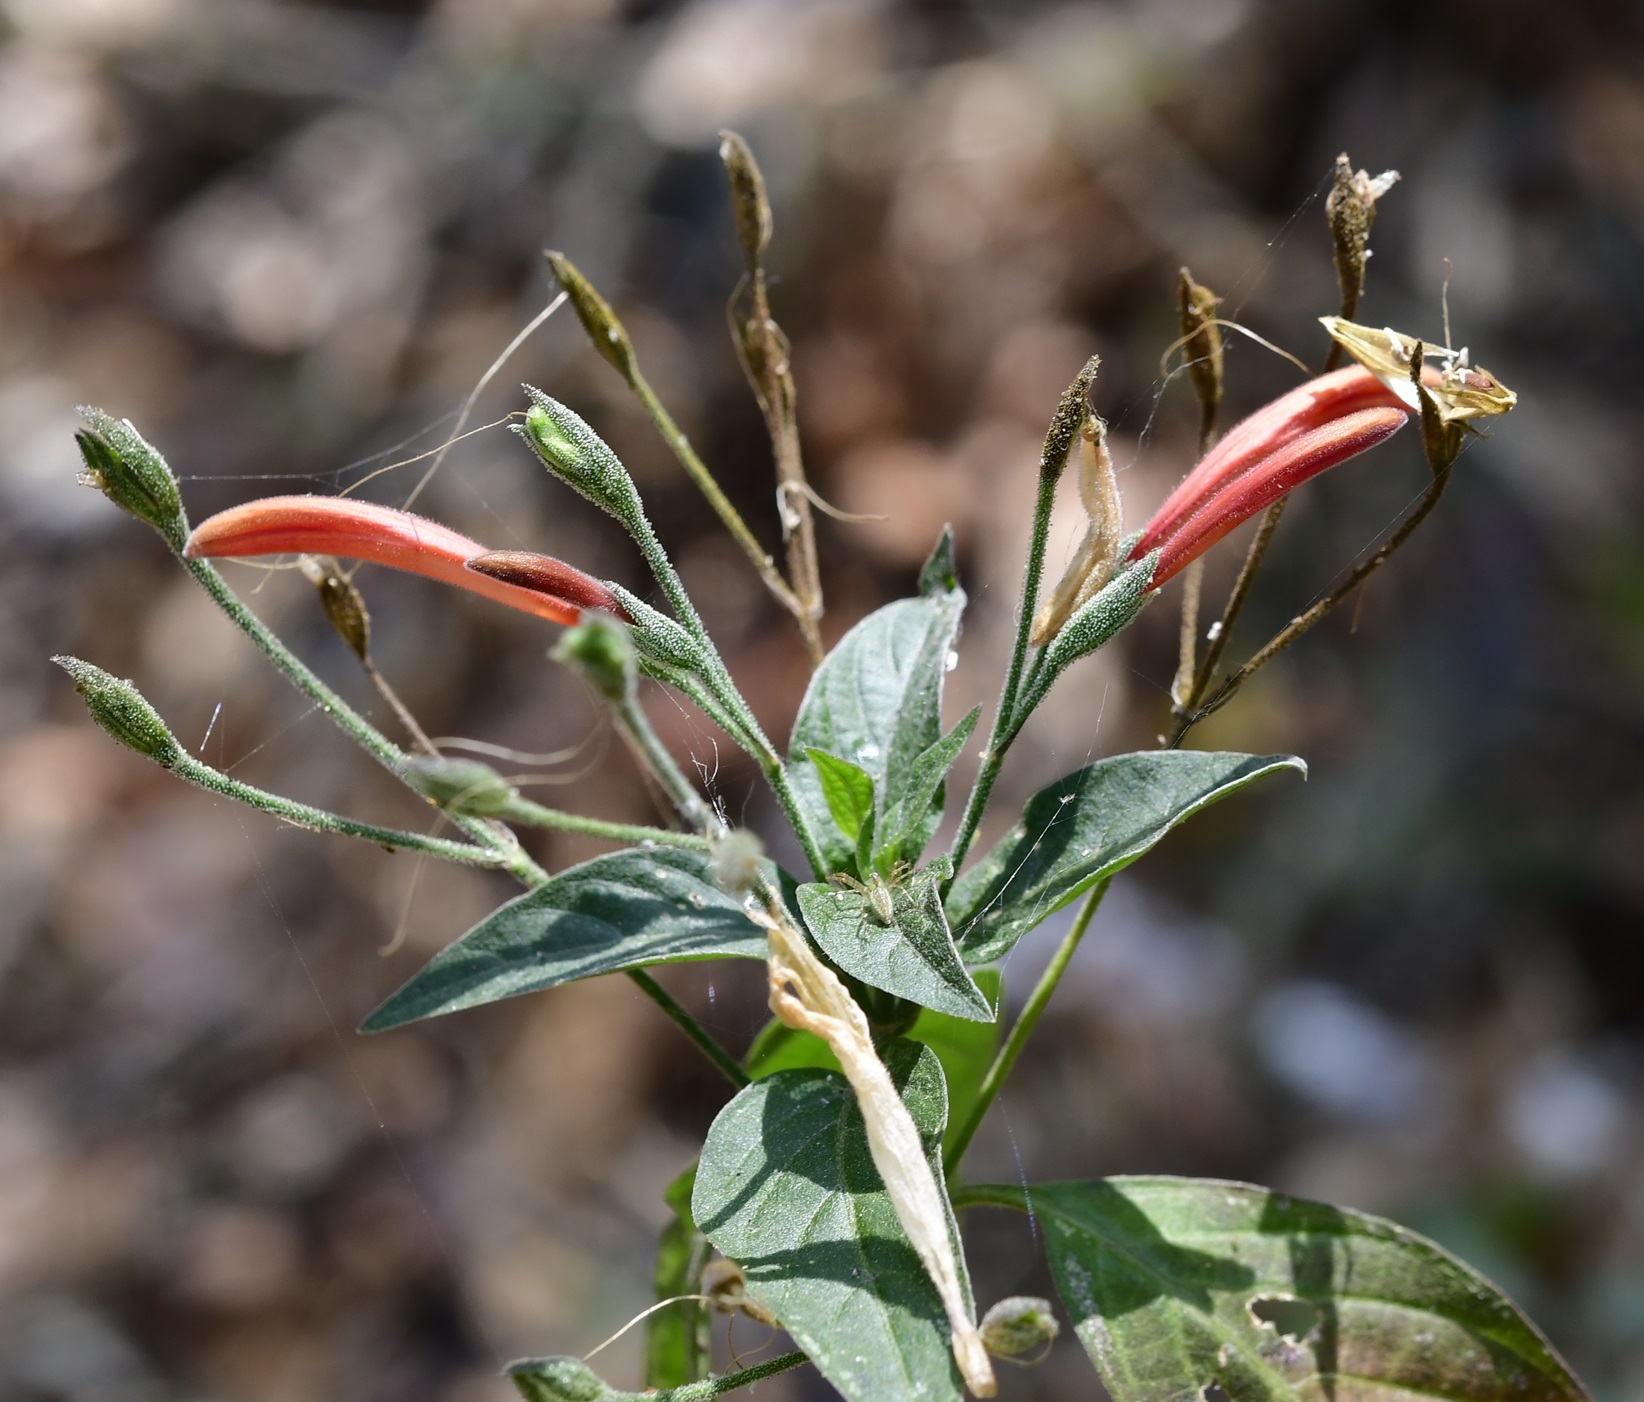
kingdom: Plantae
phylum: Tracheophyta
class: Magnoliopsida
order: Lamiales
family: Acanthaceae
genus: Dicliptera
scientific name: Dicliptera sciadephora
